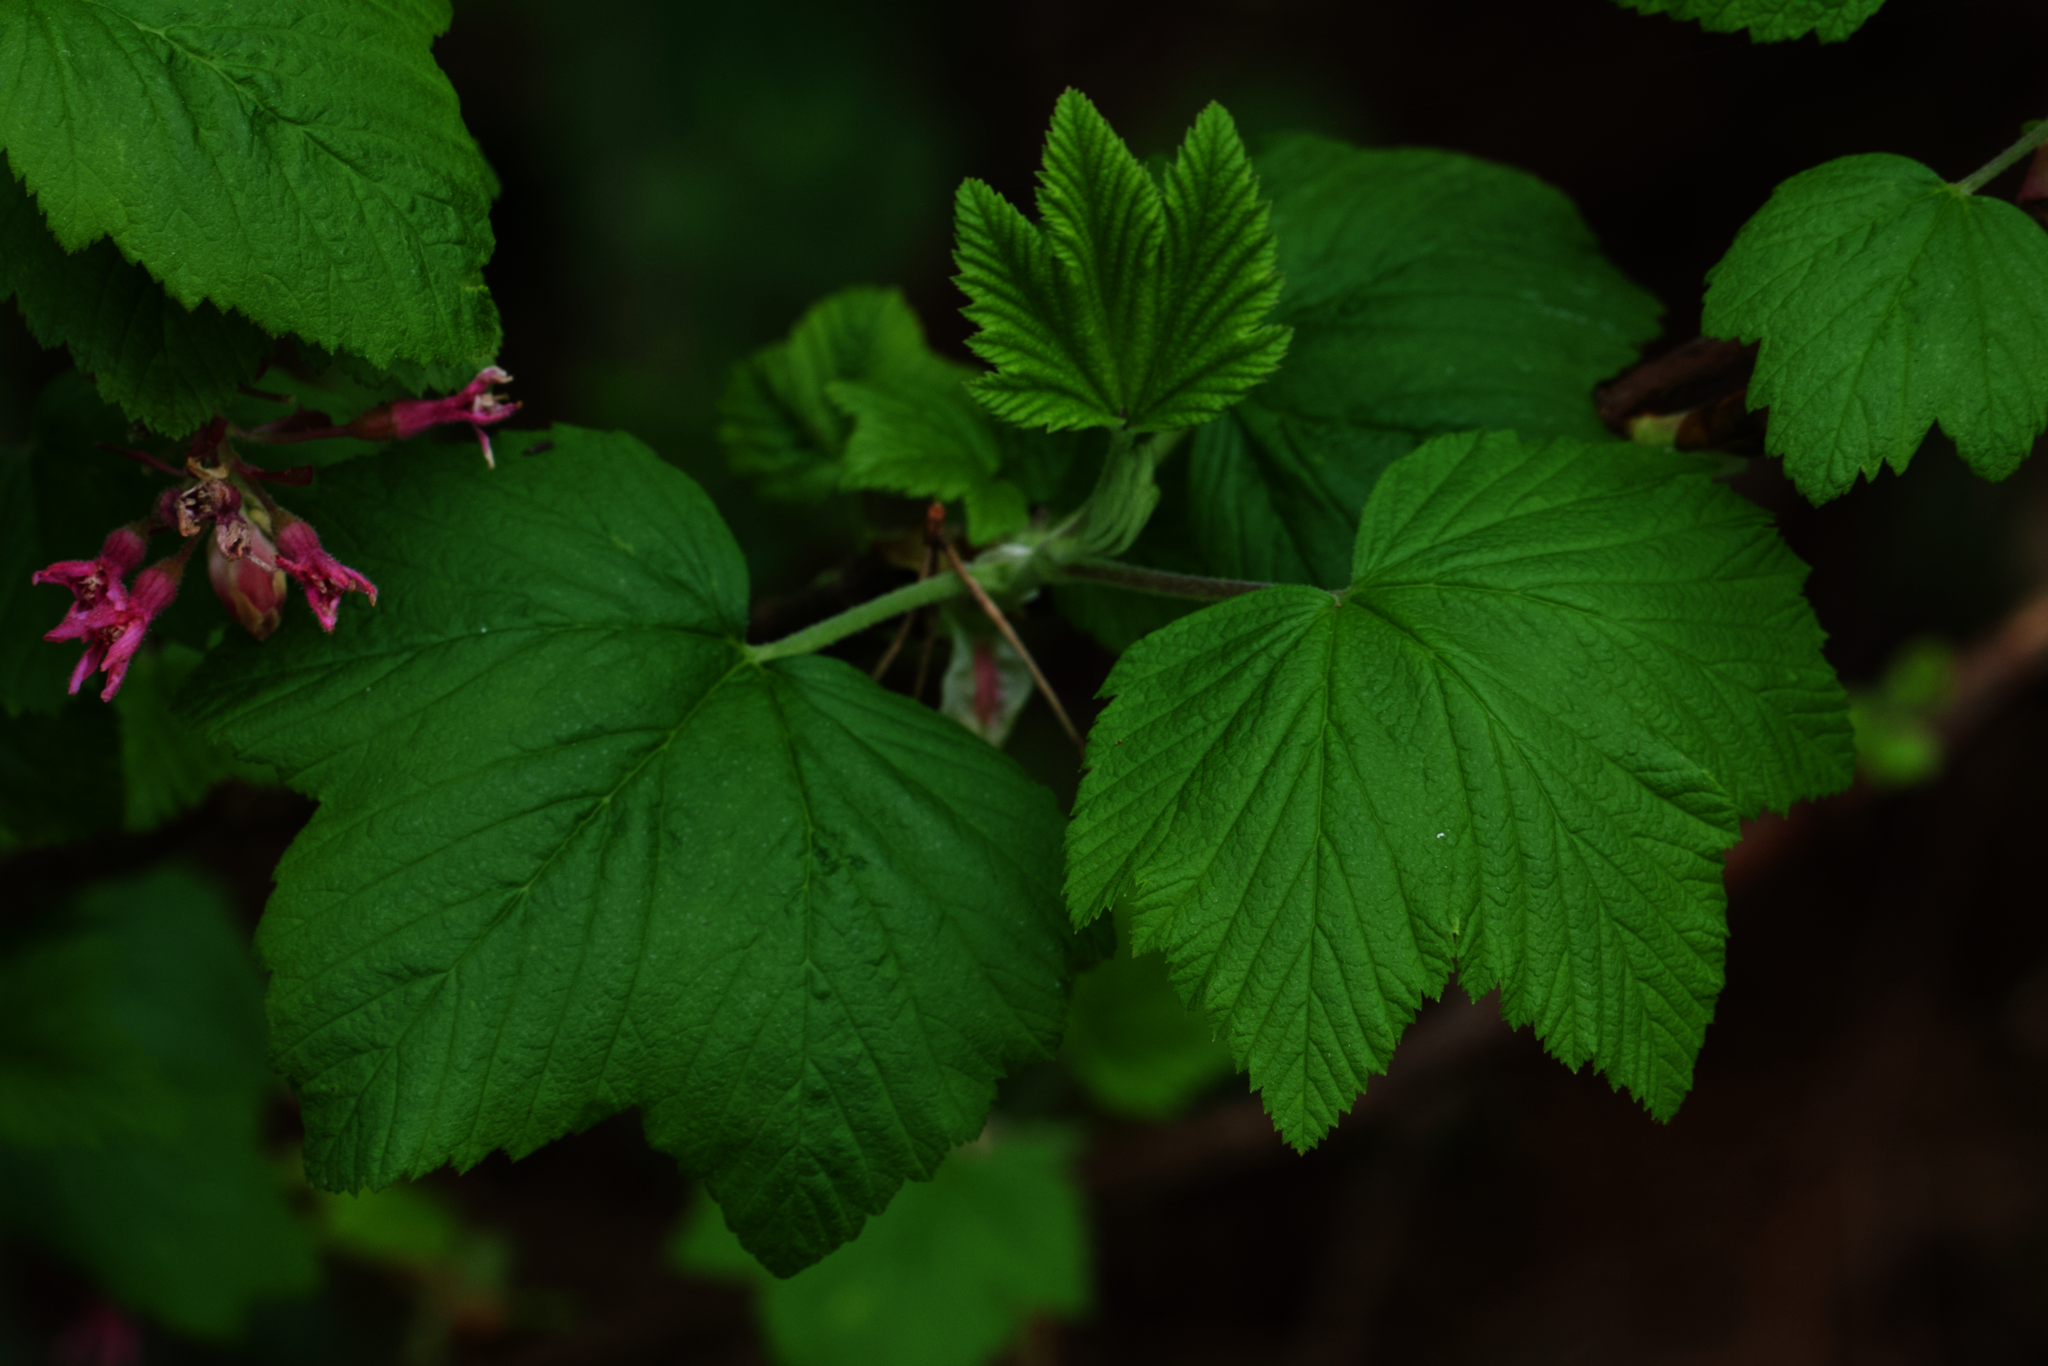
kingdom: Plantae
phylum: Tracheophyta
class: Magnoliopsida
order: Saxifragales
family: Grossulariaceae
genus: Ribes
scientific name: Ribes sanguineum
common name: Flowering currant
